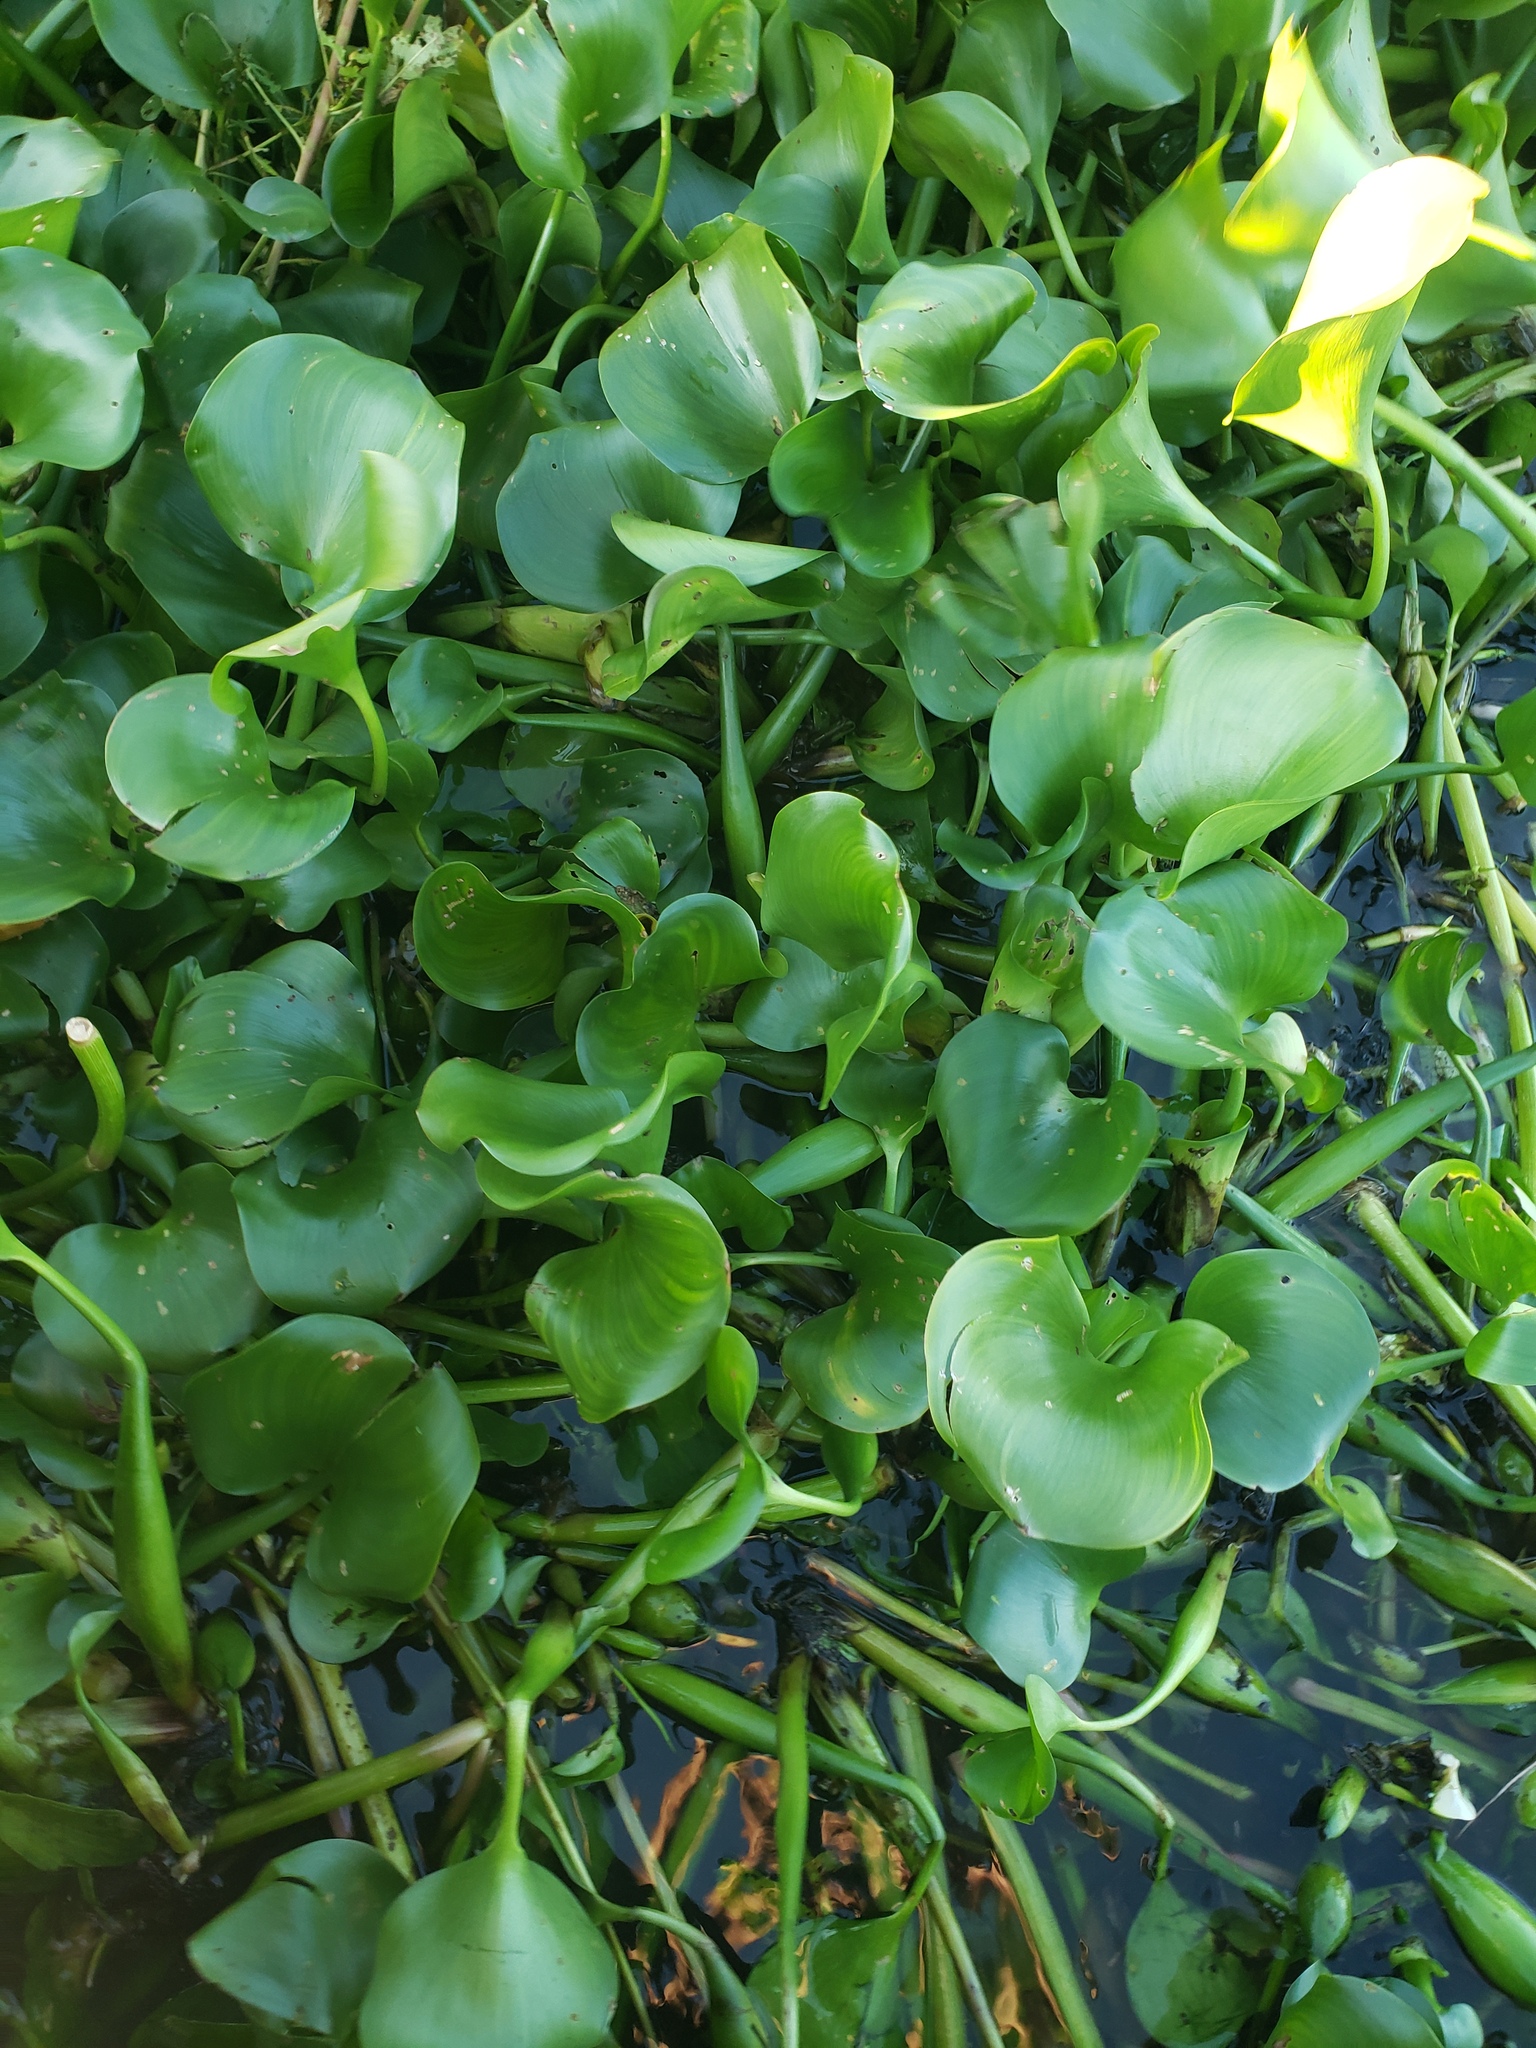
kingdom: Plantae
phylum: Tracheophyta
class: Liliopsida
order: Commelinales
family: Pontederiaceae
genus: Pontederia
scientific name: Pontederia crassipes
